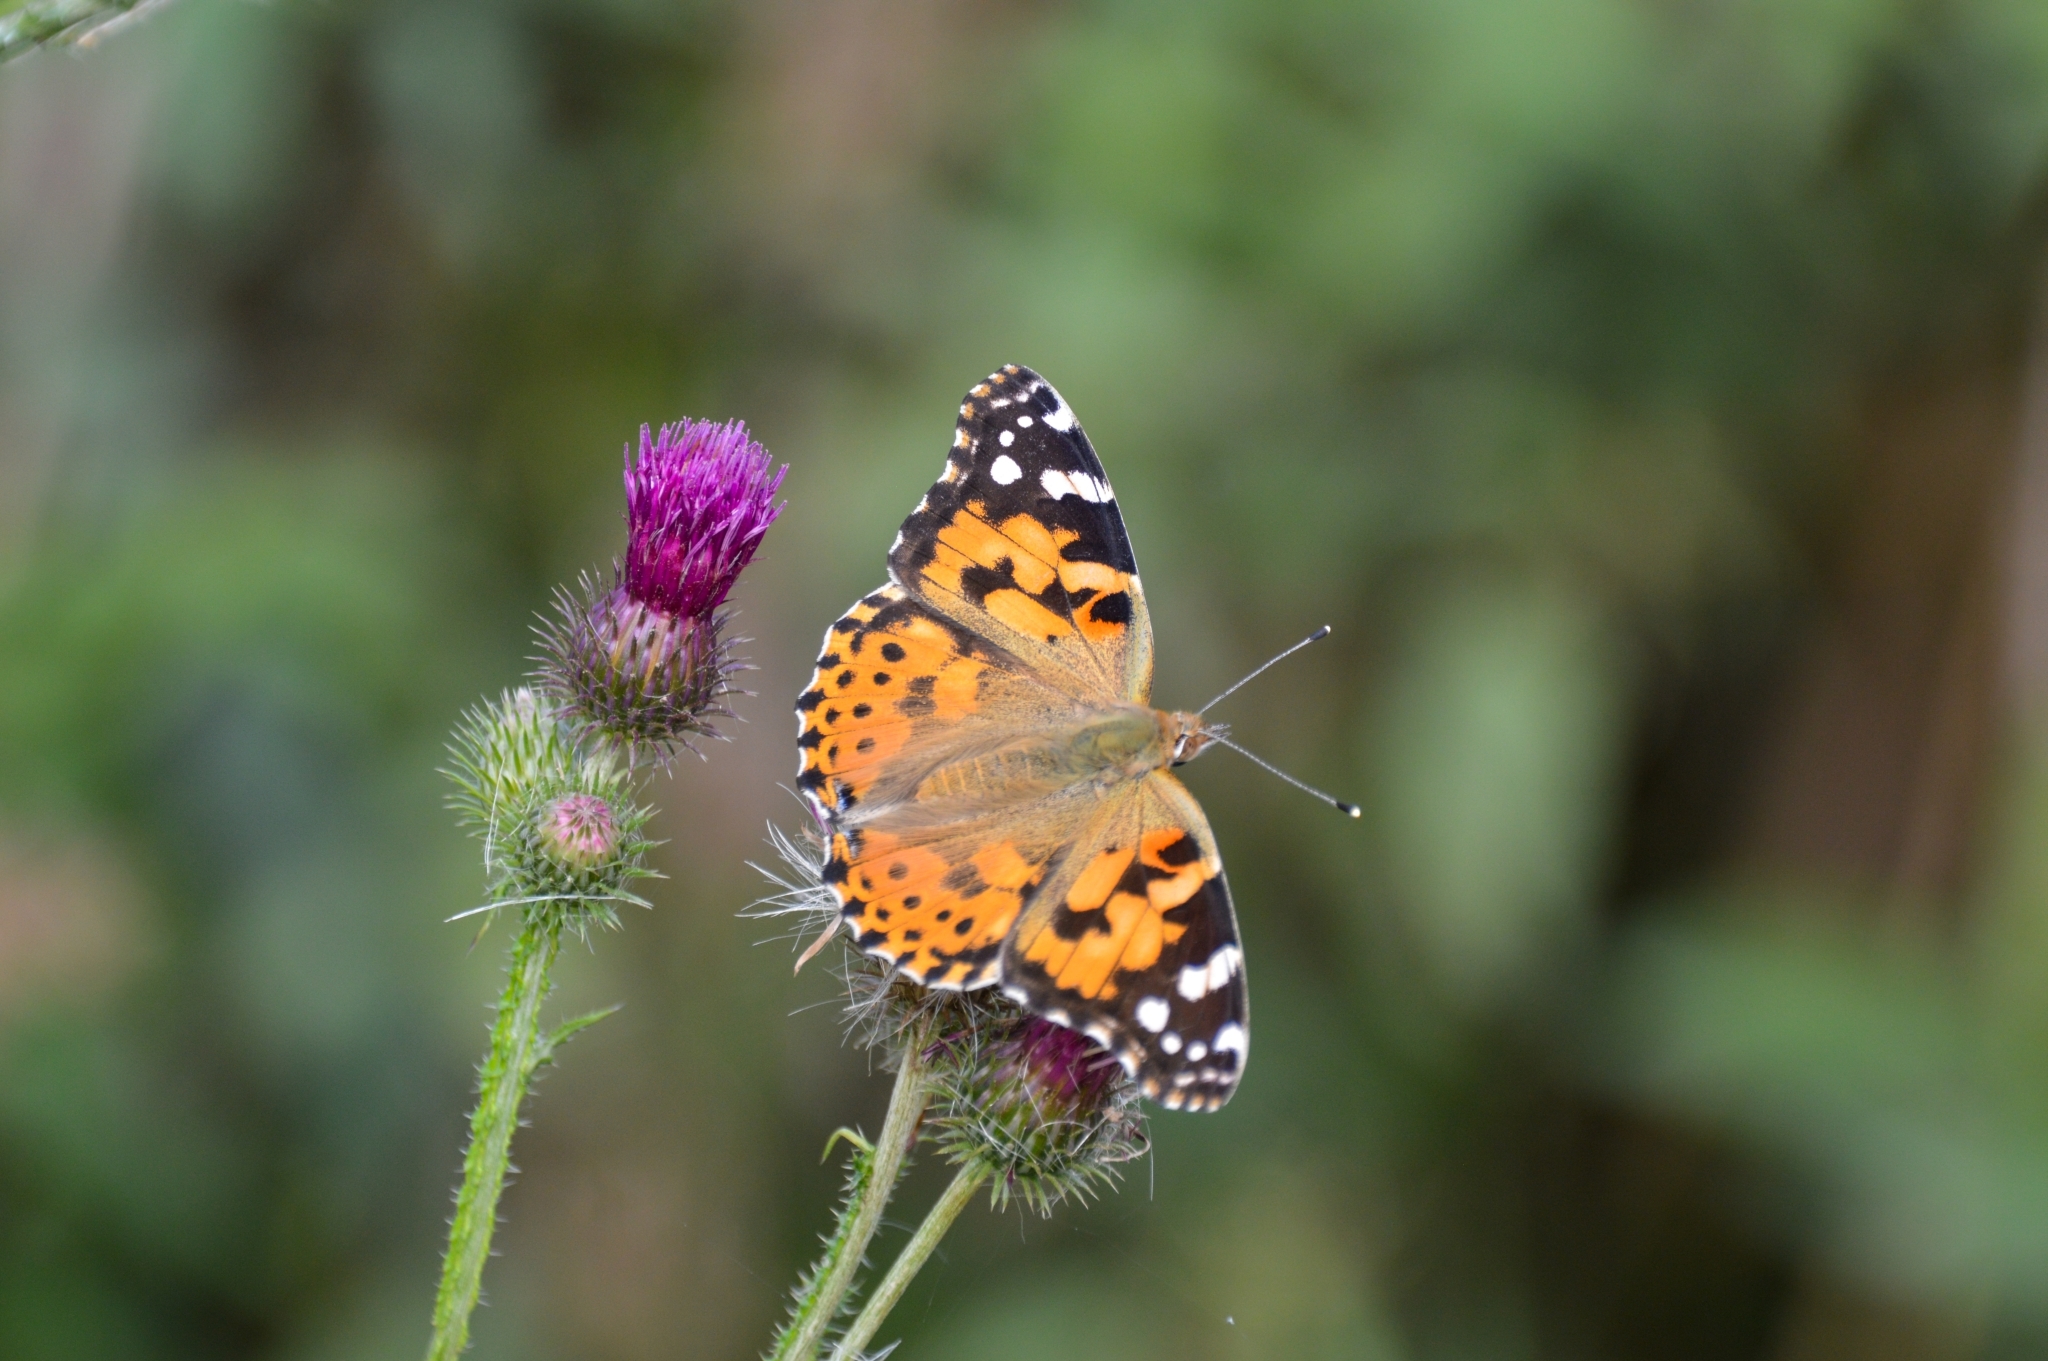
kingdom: Animalia
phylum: Arthropoda
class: Insecta
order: Lepidoptera
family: Nymphalidae
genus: Vanessa
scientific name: Vanessa cardui
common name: Painted lady
